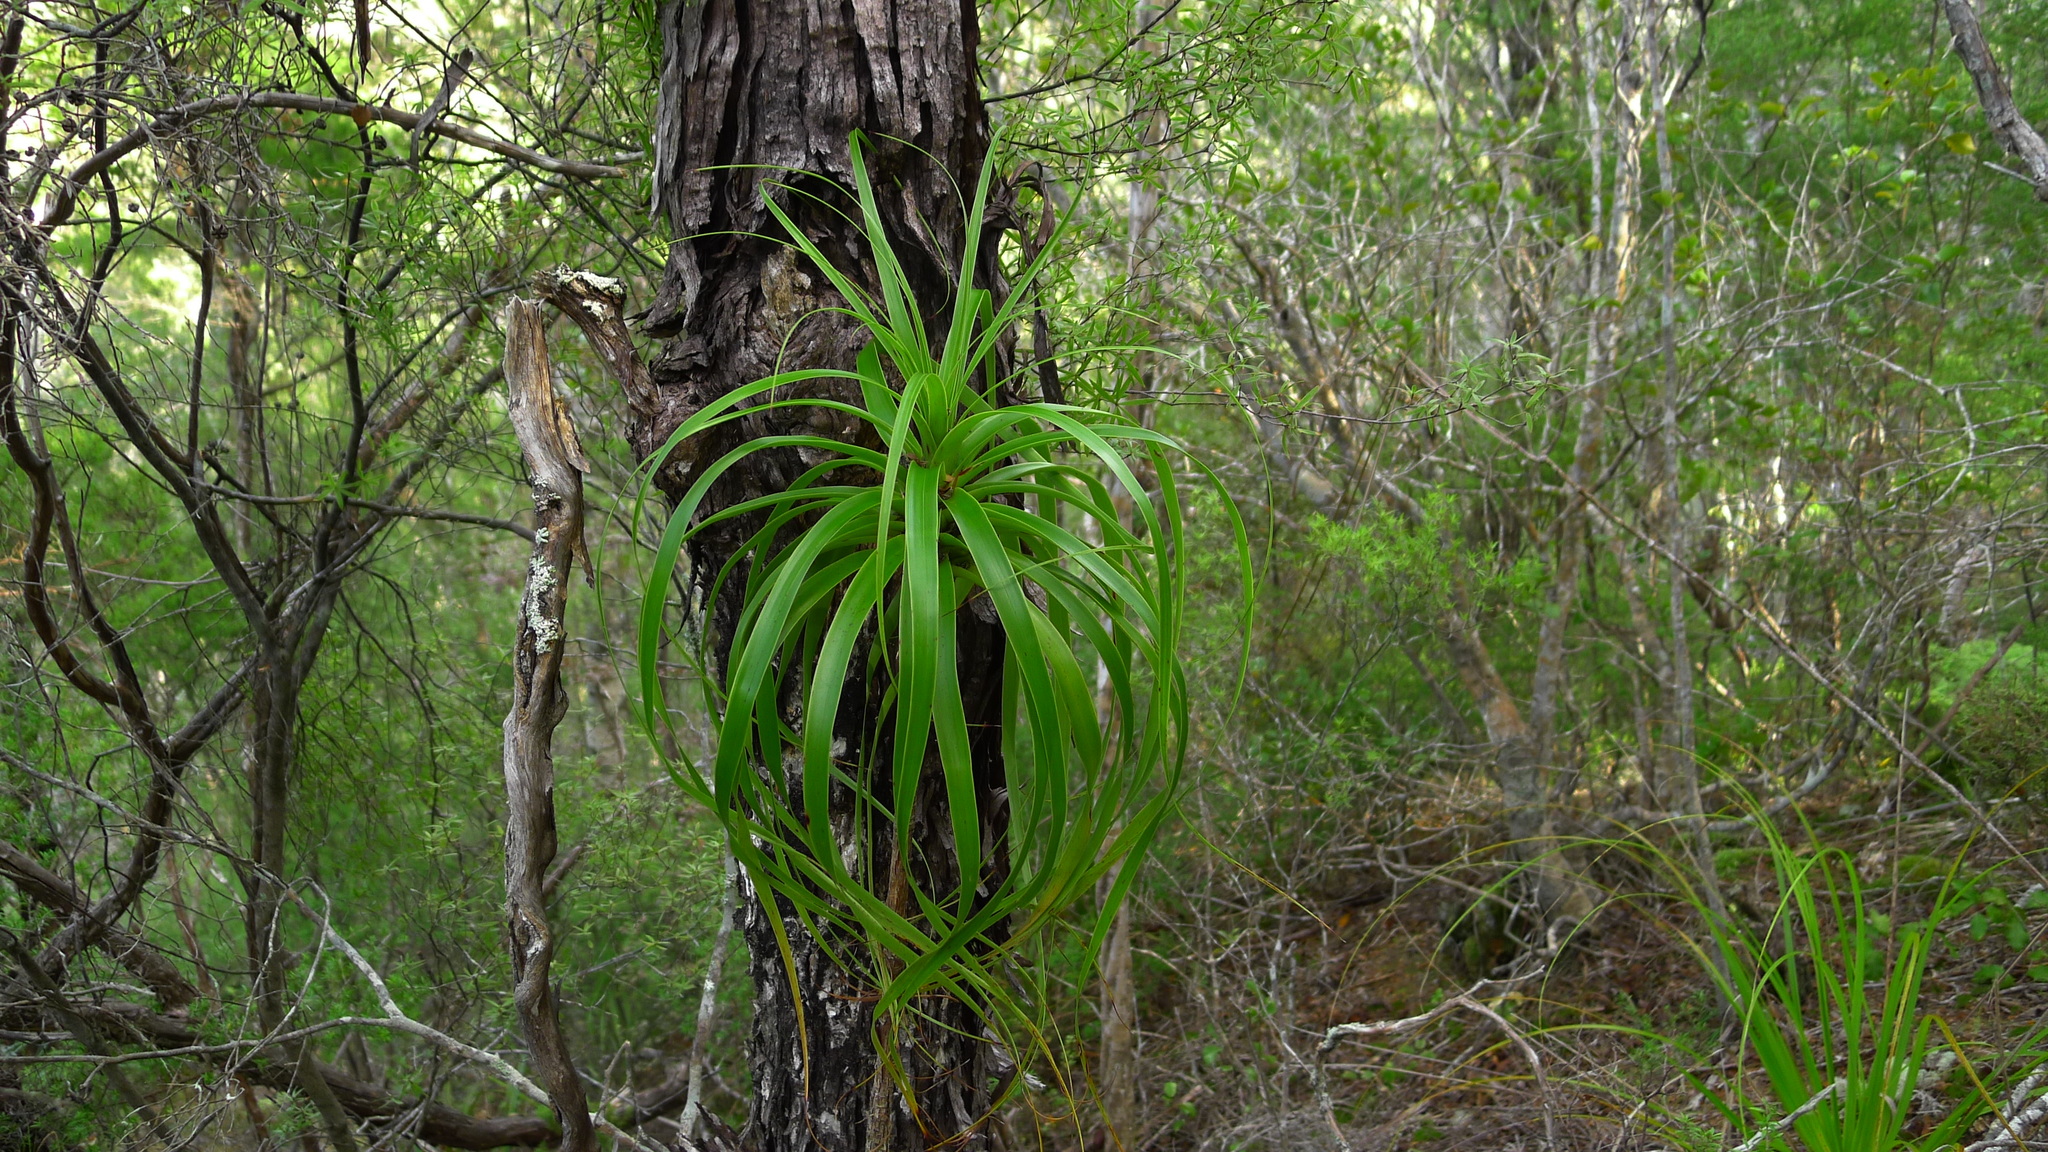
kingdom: Plantae
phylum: Tracheophyta
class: Magnoliopsida
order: Ericales
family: Ericaceae
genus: Dracophyllum
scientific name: Dracophyllum elegantissimum
